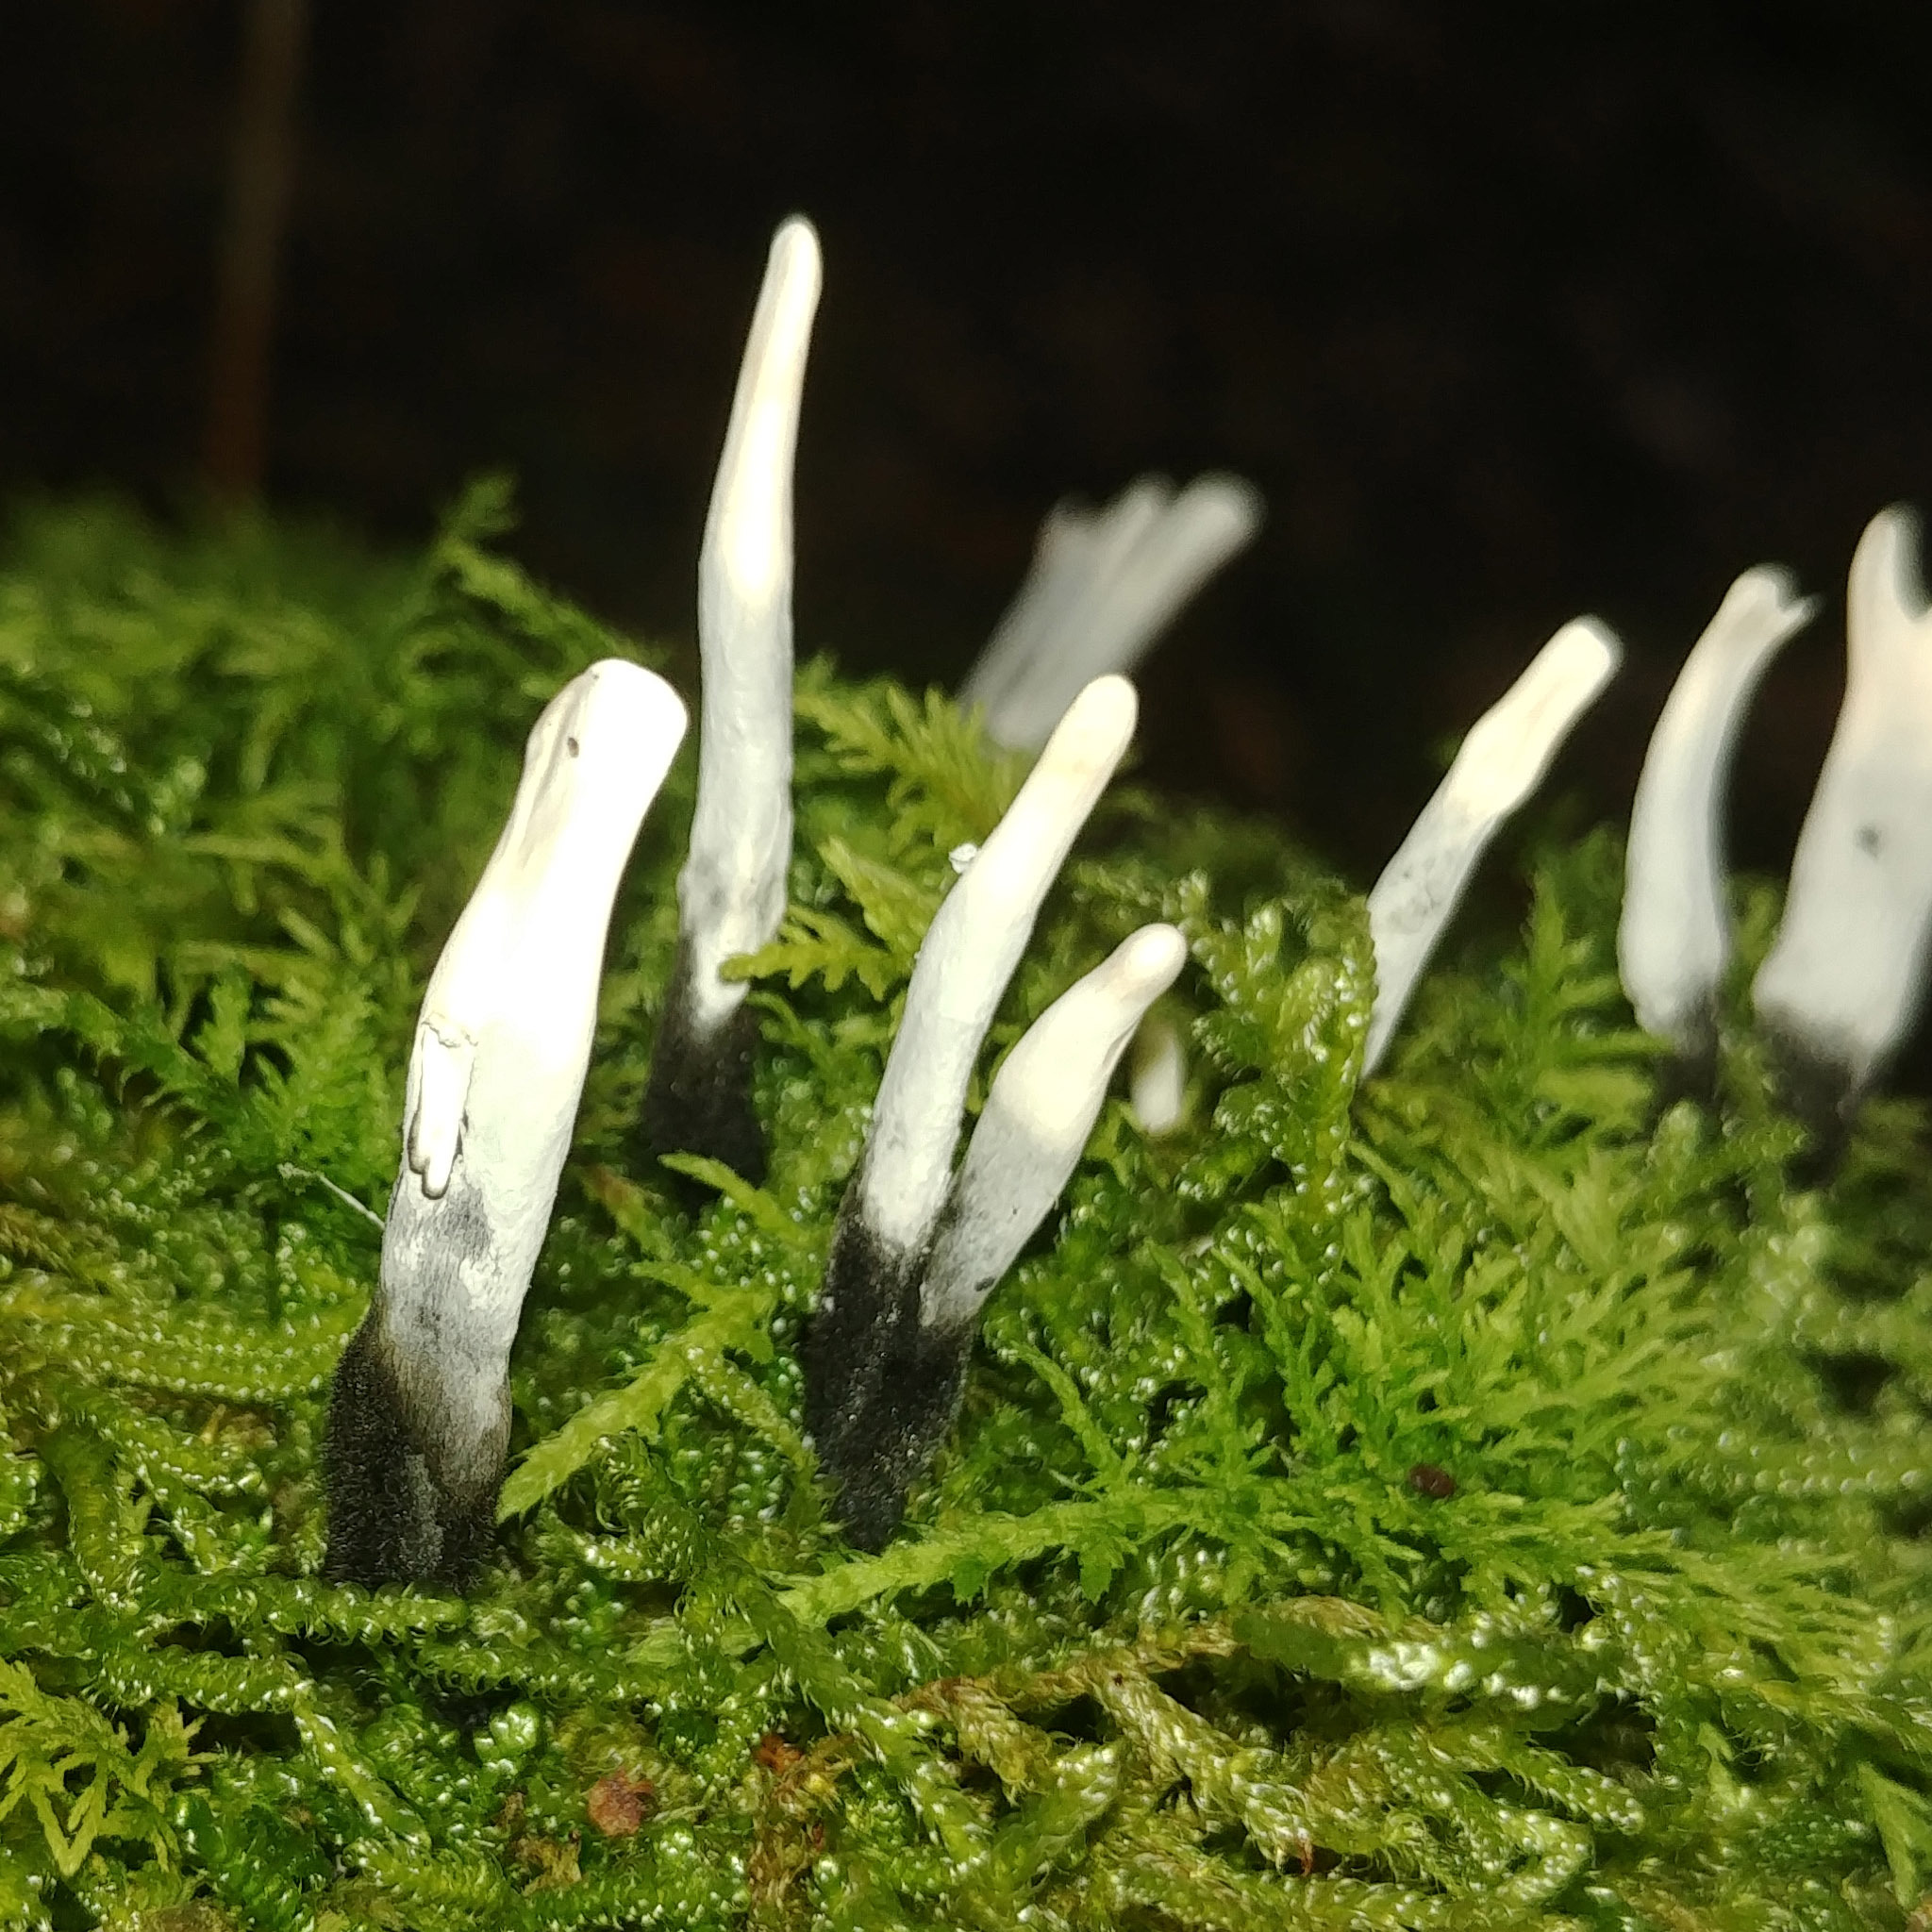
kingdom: Fungi
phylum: Ascomycota
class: Sordariomycetes
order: Xylariales
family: Xylariaceae
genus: Xylaria
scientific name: Xylaria hypoxylon
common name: Candle-snuff fungus
